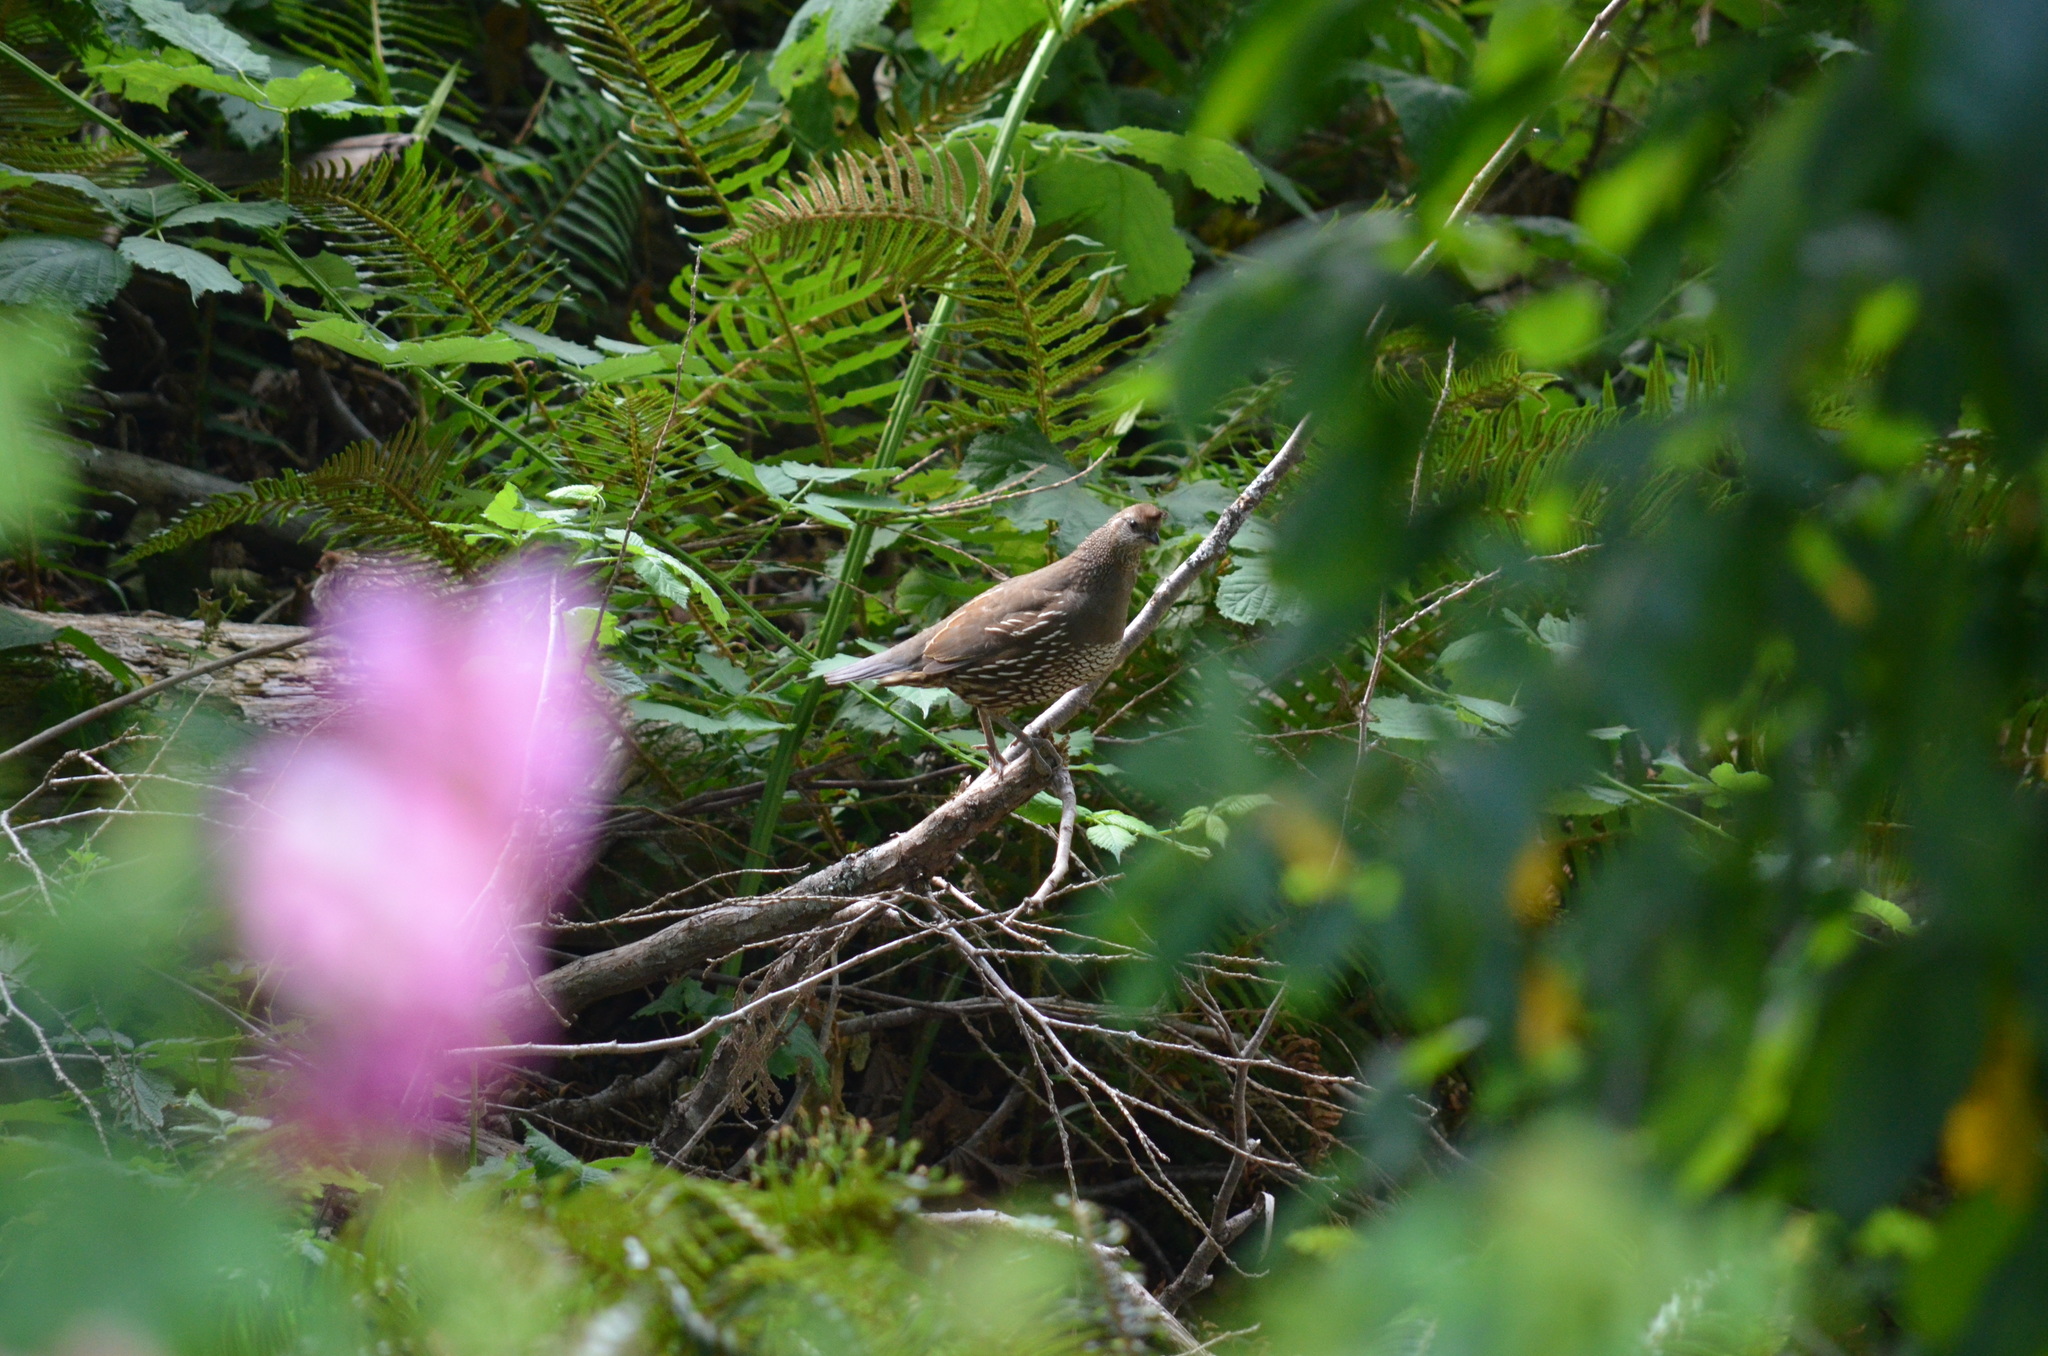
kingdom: Animalia
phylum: Chordata
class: Aves
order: Galliformes
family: Odontophoridae
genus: Callipepla
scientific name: Callipepla californica
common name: California quail
